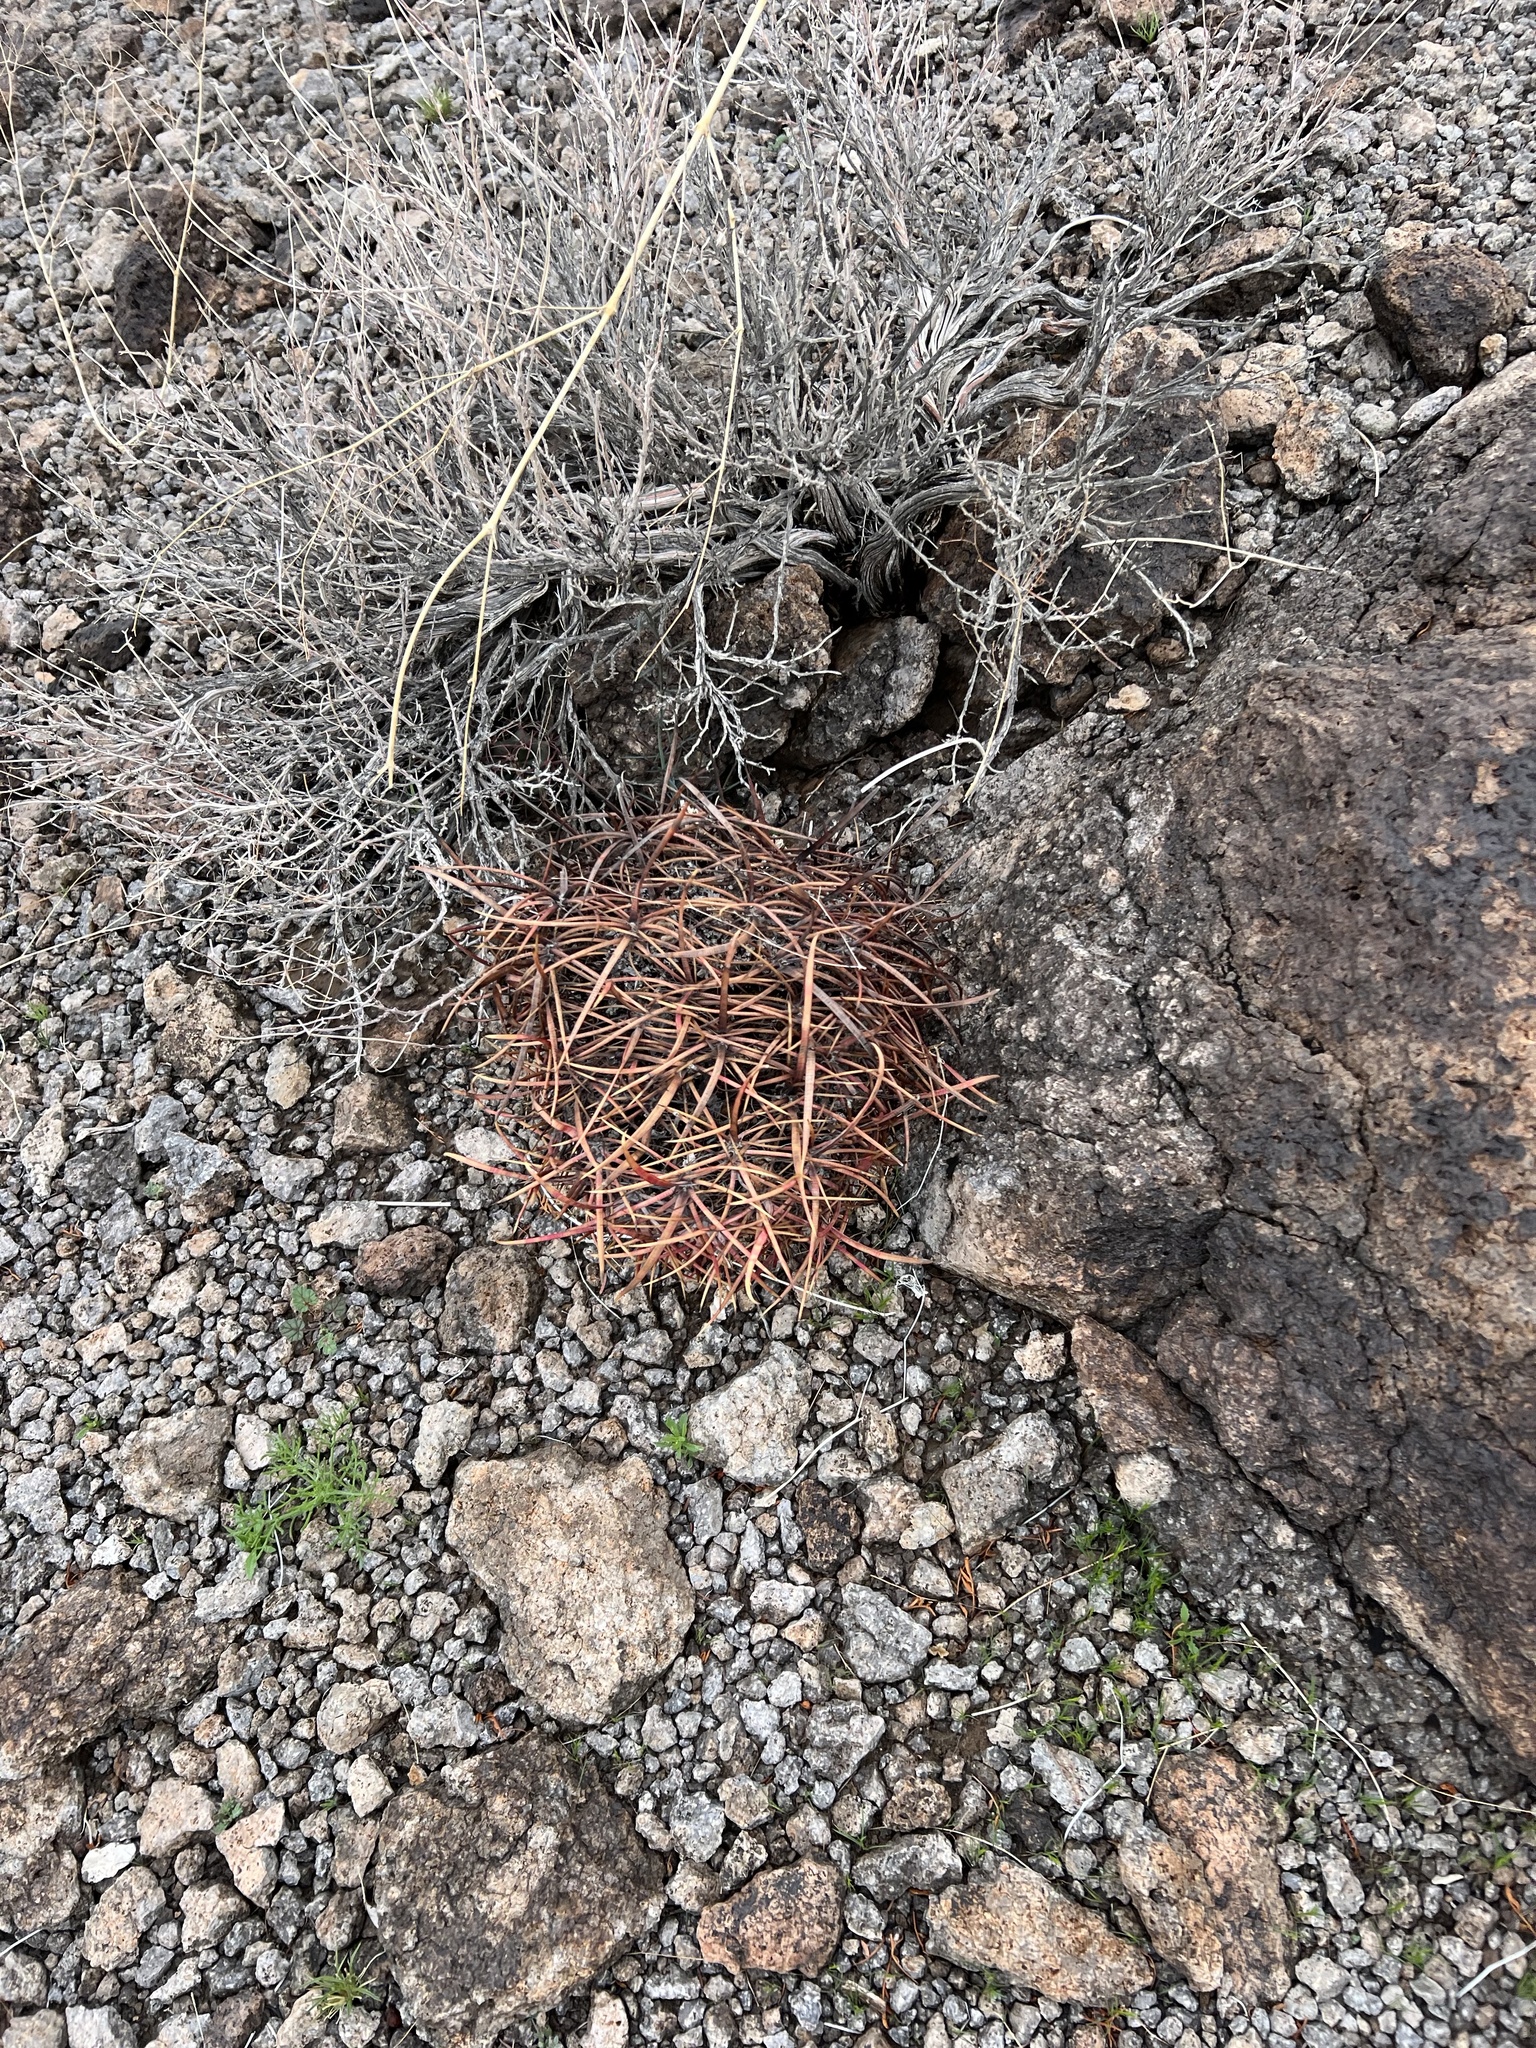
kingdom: Plantae
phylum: Tracheophyta
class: Magnoliopsida
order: Caryophyllales
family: Cactaceae
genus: Ferocactus
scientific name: Ferocactus cylindraceus
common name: California barrel cactus
